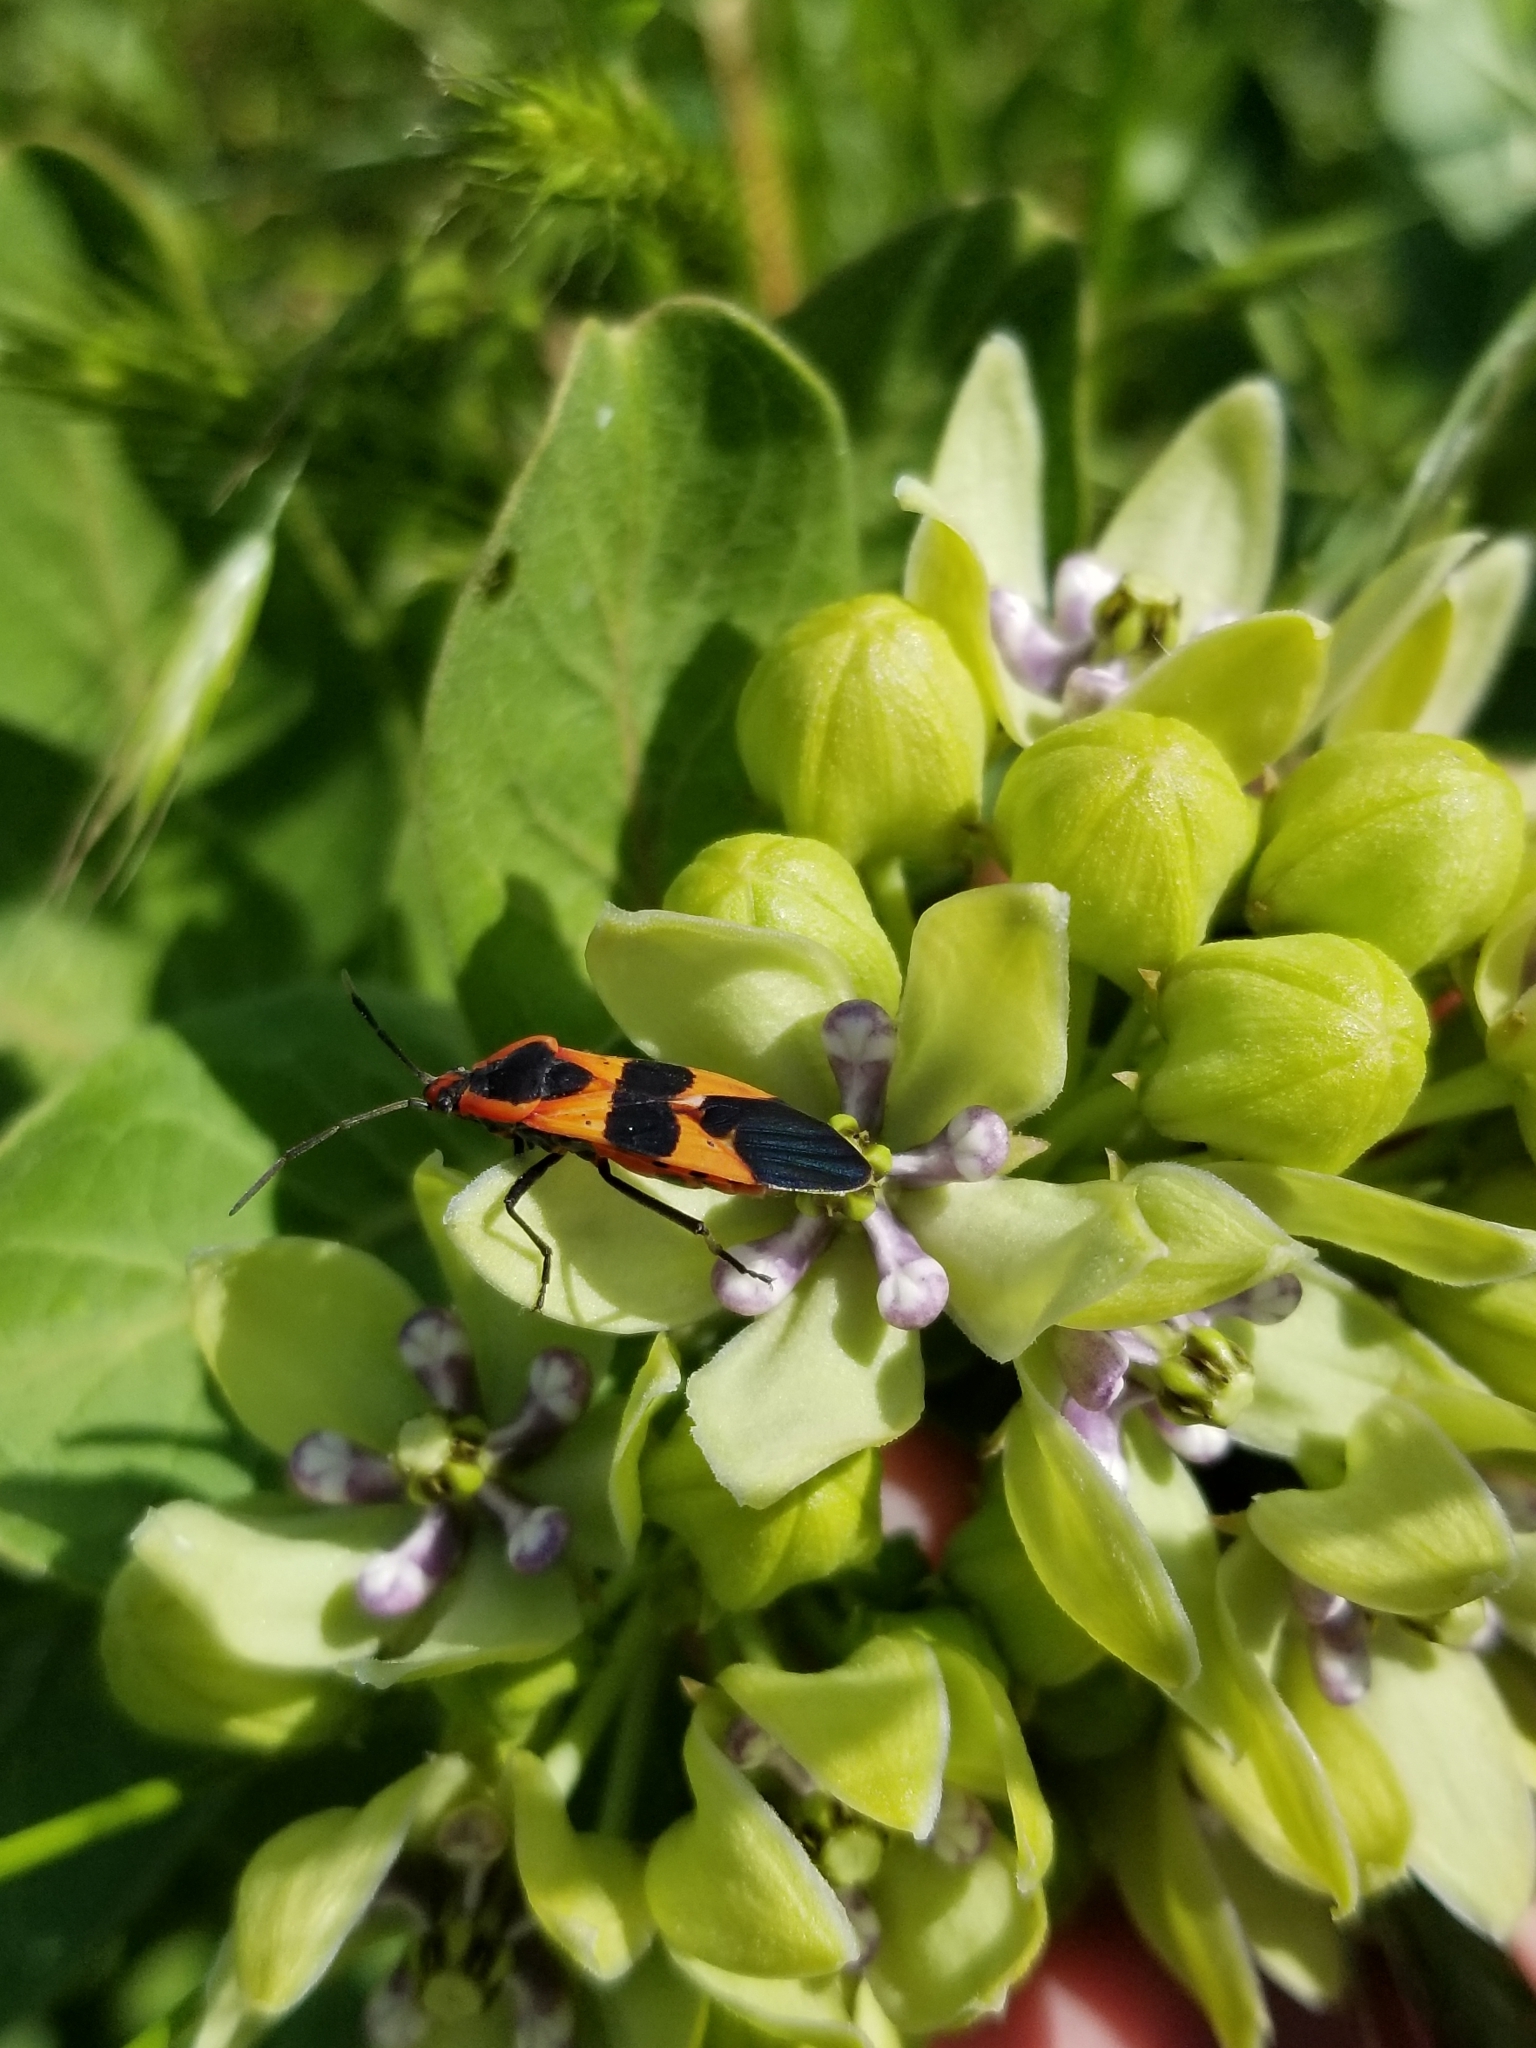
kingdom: Animalia
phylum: Arthropoda
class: Insecta
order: Hemiptera
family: Lygaeidae
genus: Oncopeltus
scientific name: Oncopeltus fasciatus
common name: Large milkweed bug
